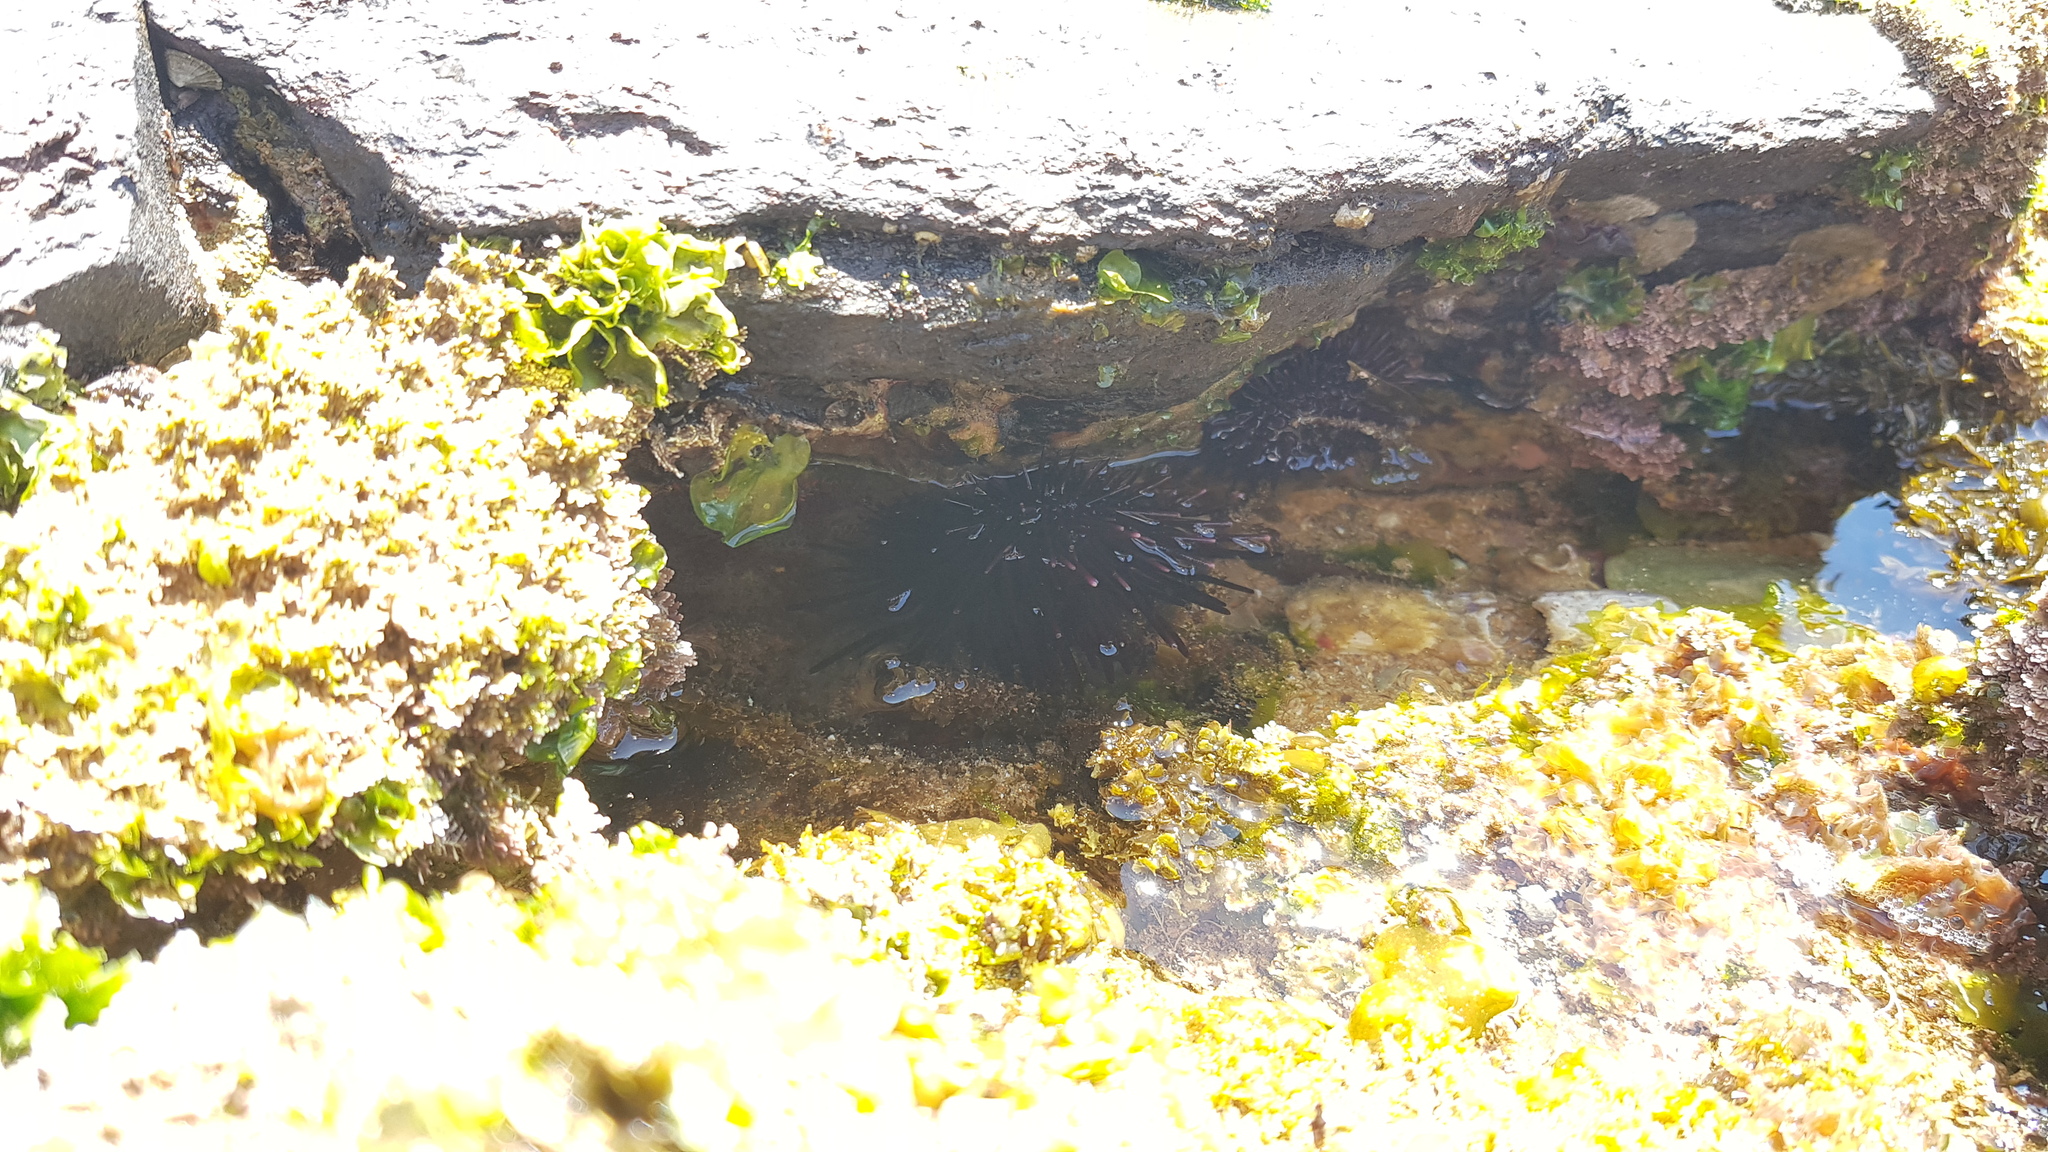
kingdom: Animalia
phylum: Echinodermata
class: Echinoidea
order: Camarodonta
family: Echinometridae
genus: Heliocidaris
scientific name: Heliocidaris erythrogramma
